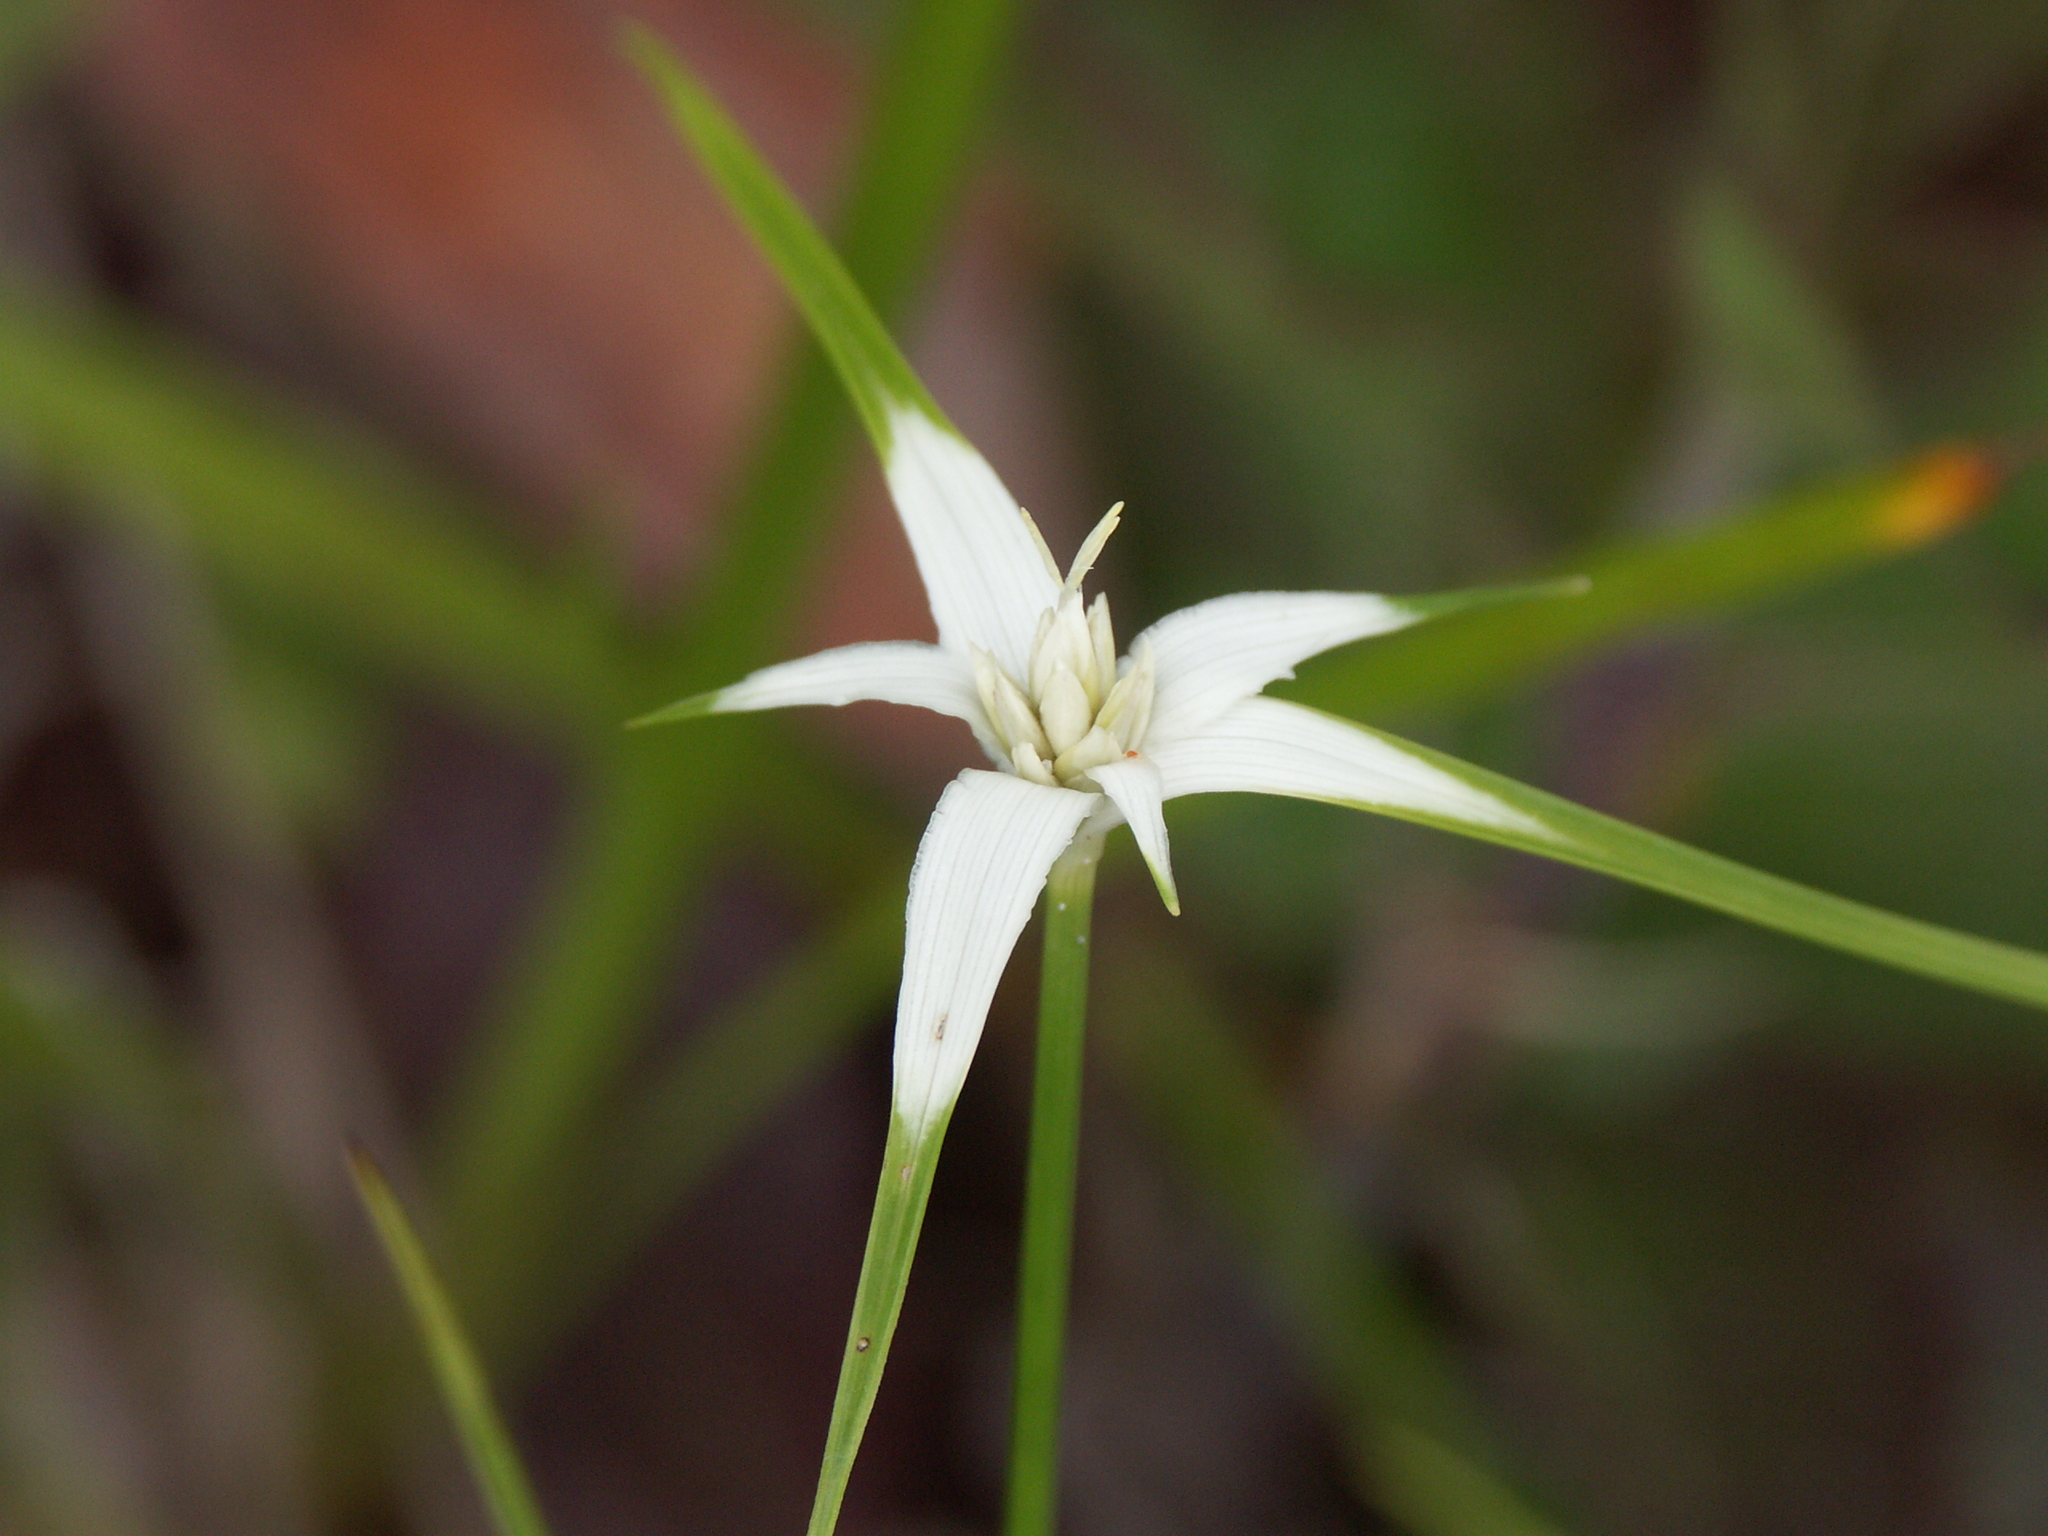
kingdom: Plantae
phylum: Tracheophyta
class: Liliopsida
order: Poales
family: Cyperaceae
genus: Rhynchospora
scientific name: Rhynchospora colorata
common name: Star sedge
